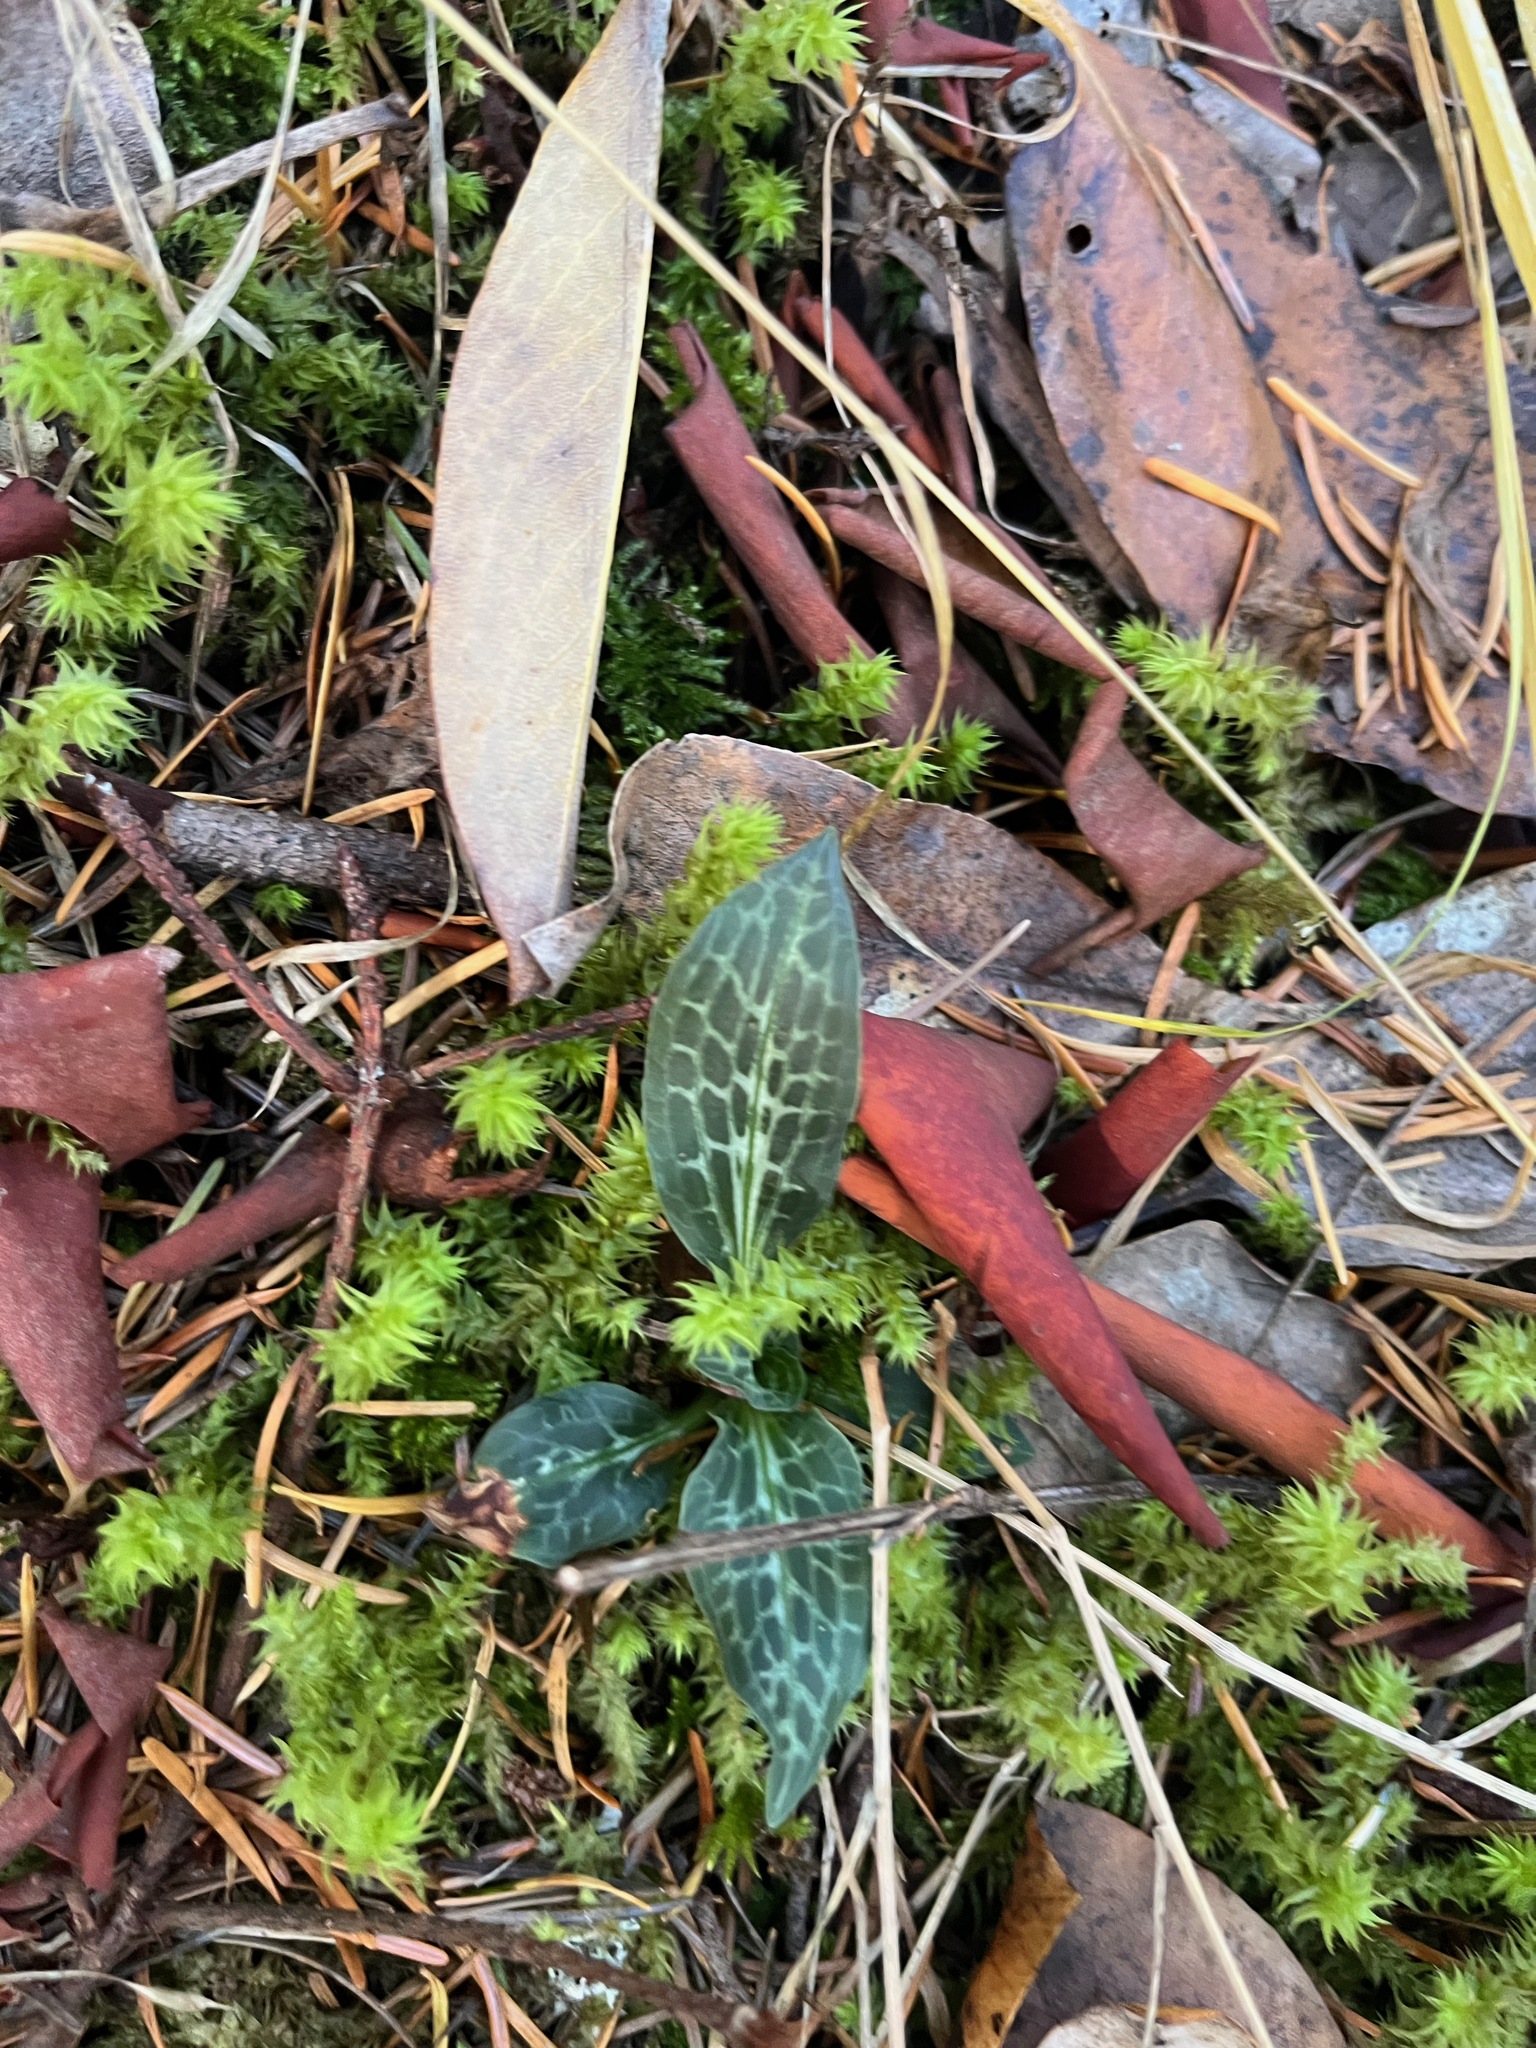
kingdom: Plantae
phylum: Tracheophyta
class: Liliopsida
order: Asparagales
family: Orchidaceae
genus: Goodyera
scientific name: Goodyera oblongifolia
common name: Giant rattlesnake-plantain
